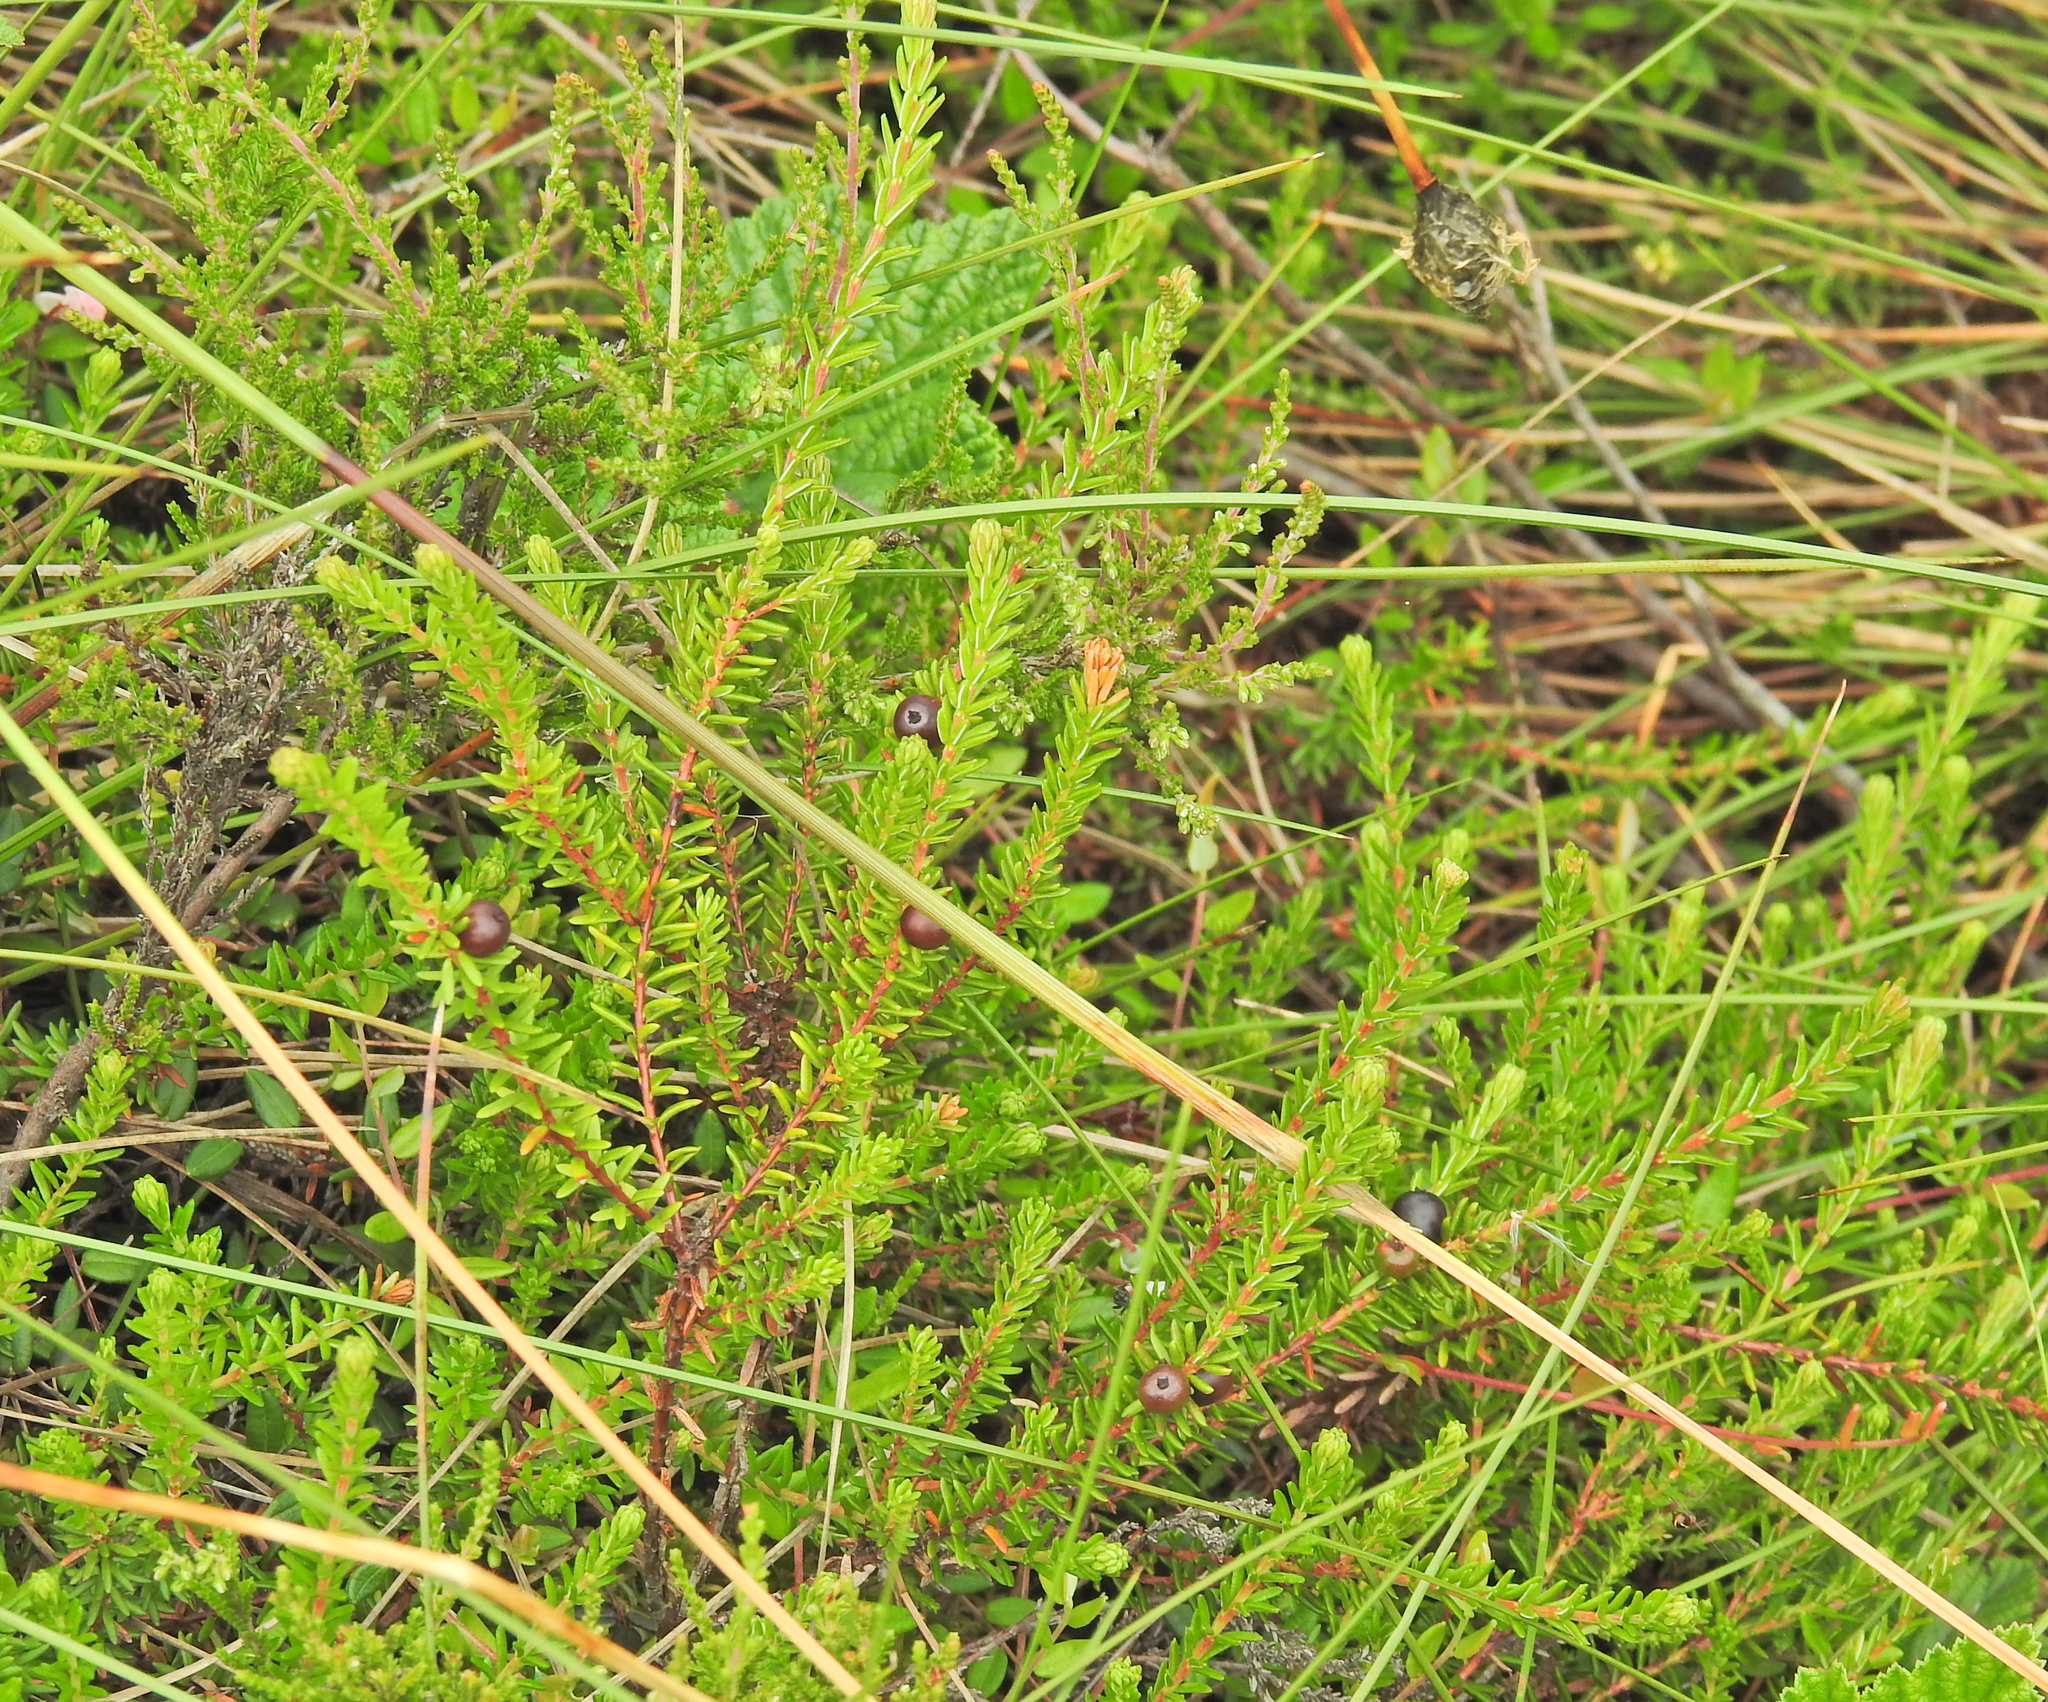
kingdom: Plantae
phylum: Tracheophyta
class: Magnoliopsida
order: Ericales
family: Ericaceae
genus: Empetrum
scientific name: Empetrum nigrum
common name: Black crowberry
